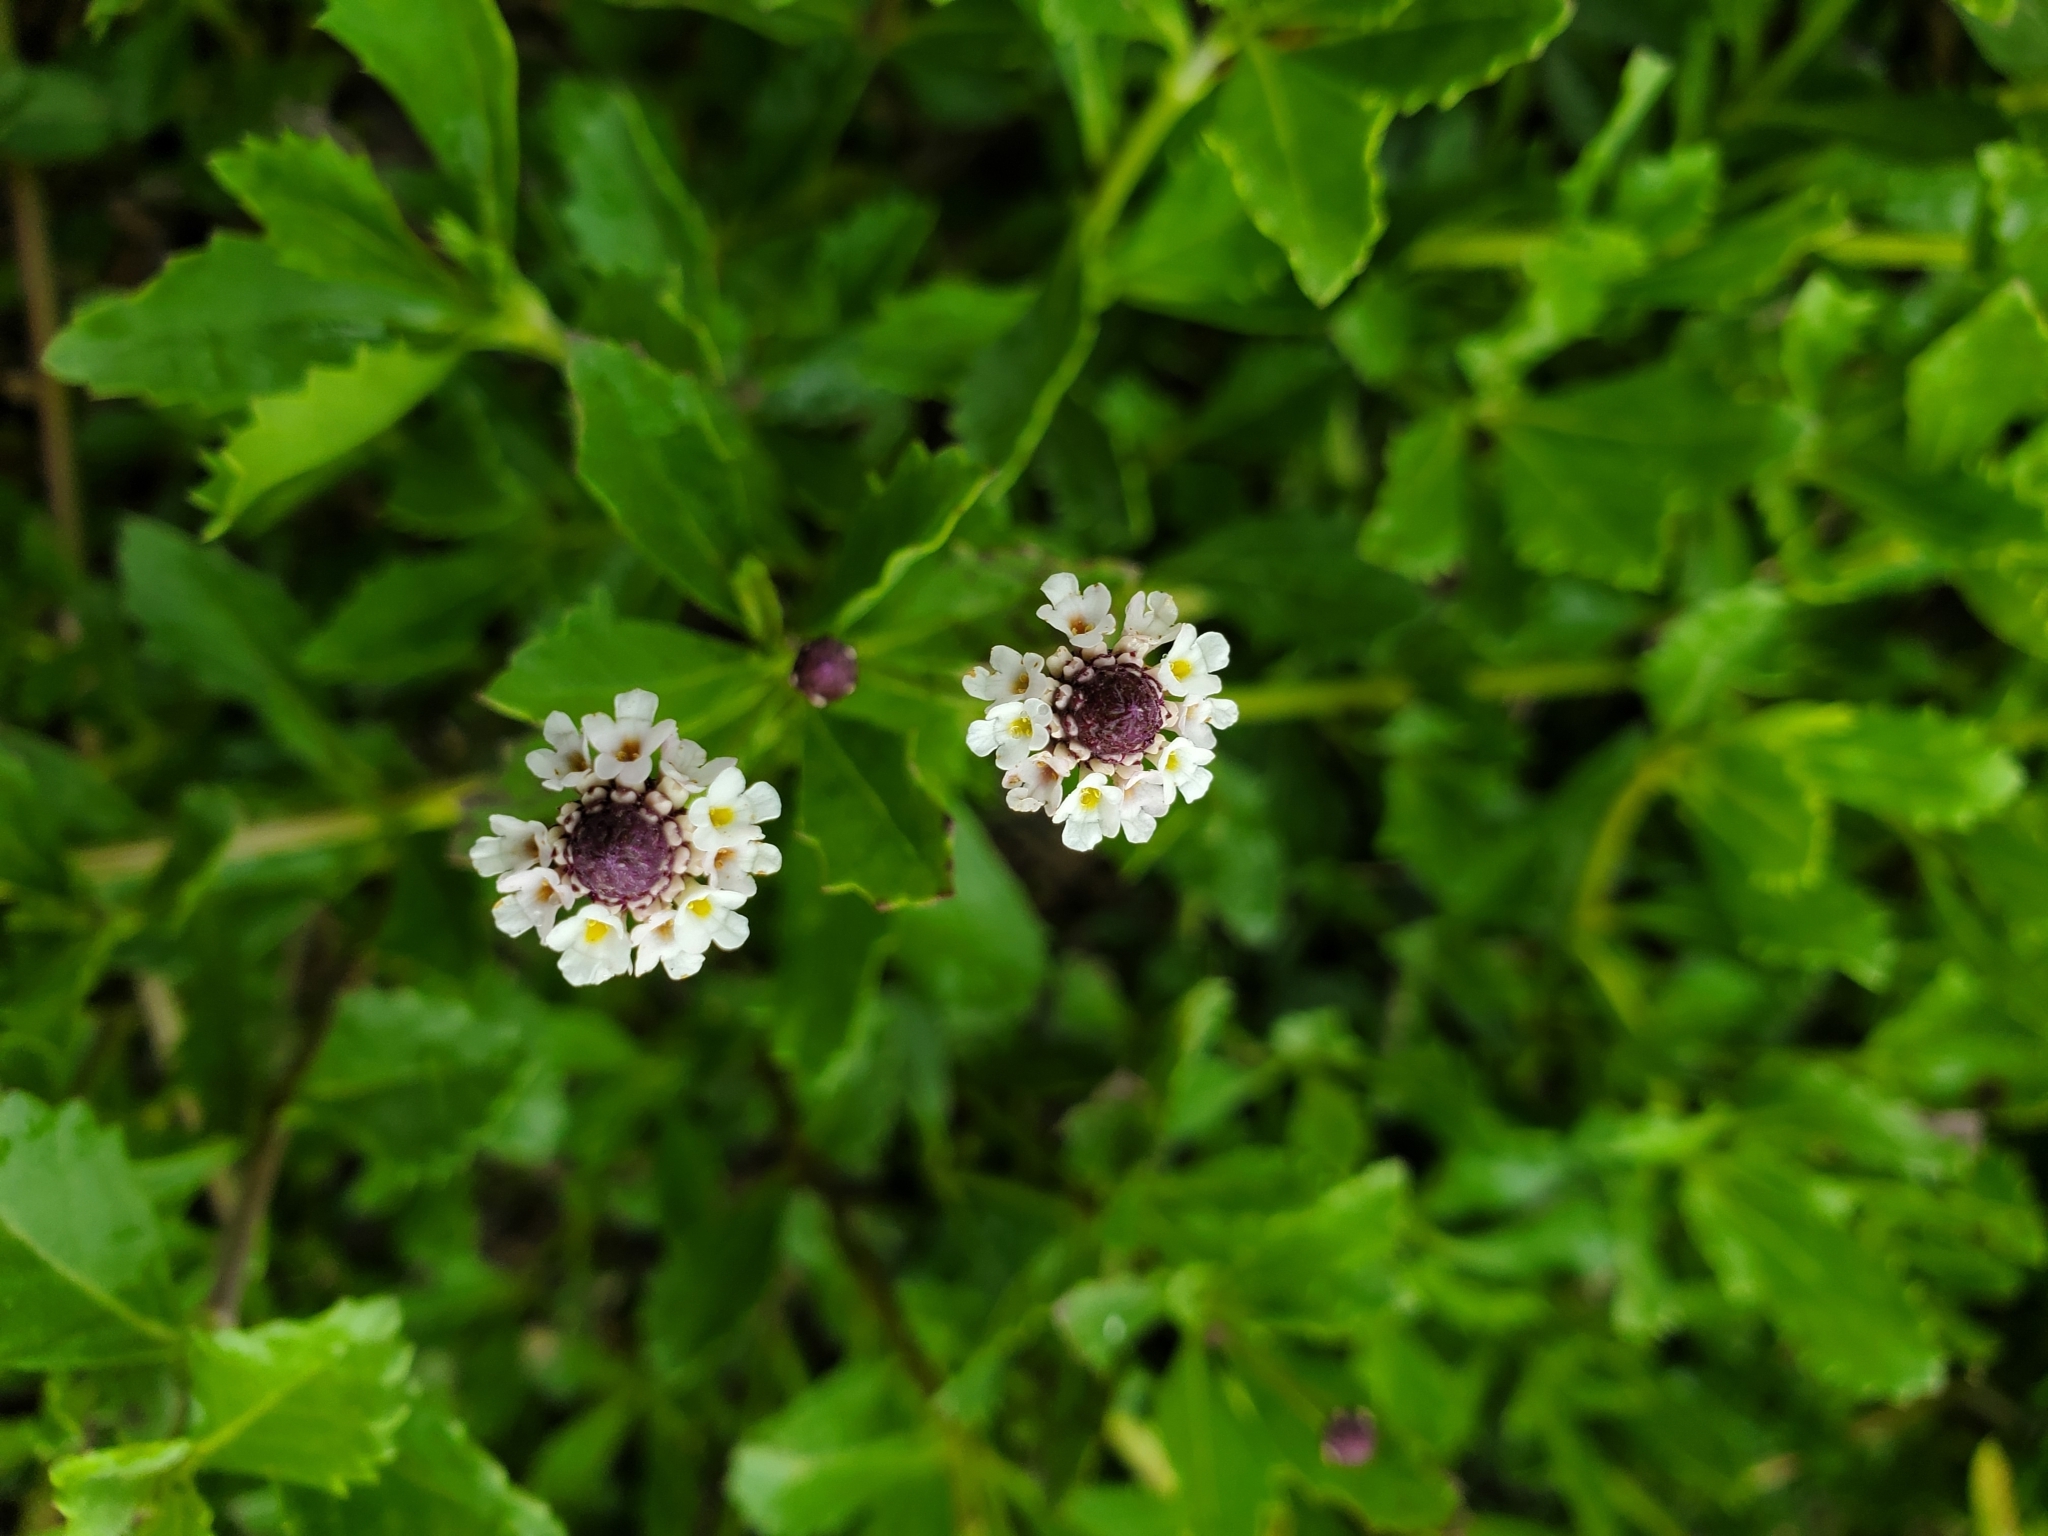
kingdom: Plantae
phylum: Tracheophyta
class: Magnoliopsida
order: Lamiales
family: Verbenaceae
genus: Phyla
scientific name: Phyla nodiflora
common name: Frogfruit
